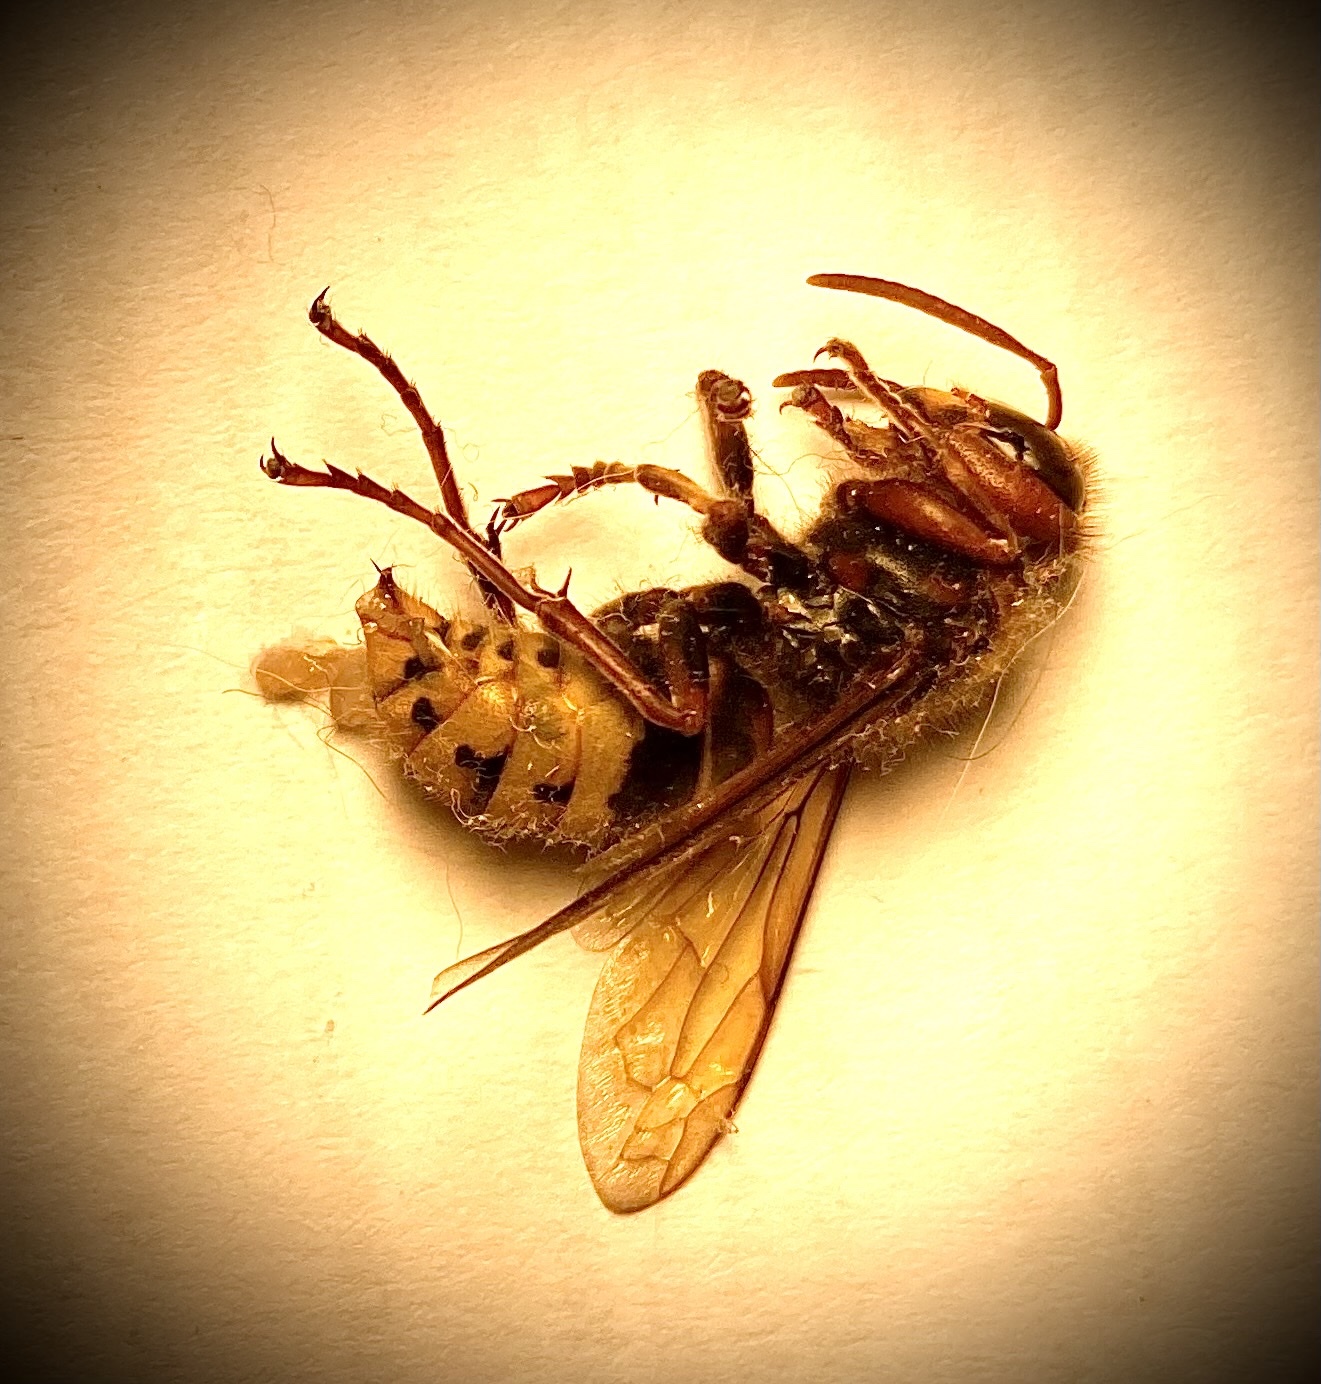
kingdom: Animalia
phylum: Arthropoda
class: Insecta
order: Hymenoptera
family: Vespidae
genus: Vespa
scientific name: Vespa crabro
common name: Hornet
